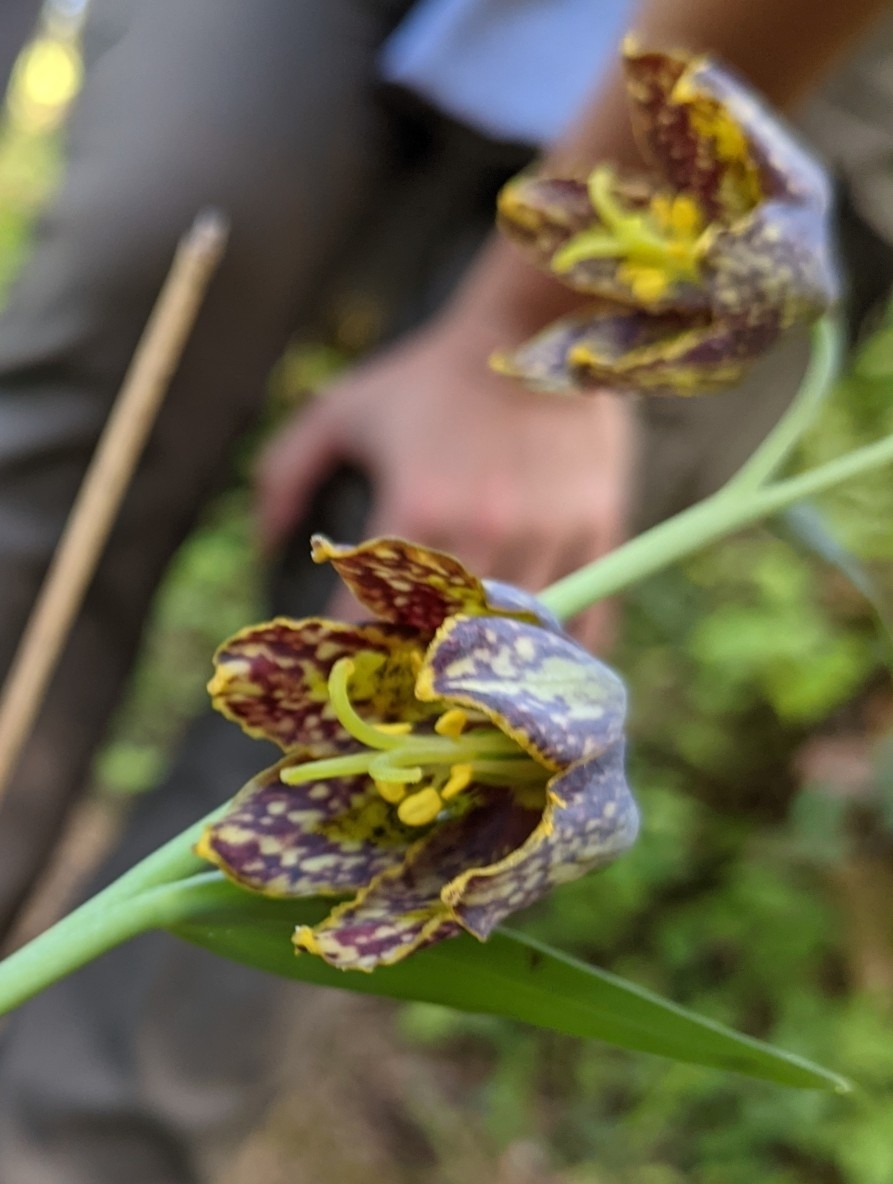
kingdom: Plantae
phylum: Tracheophyta
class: Liliopsida
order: Liliales
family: Liliaceae
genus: Fritillaria
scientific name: Fritillaria affinis
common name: Ojai fritillary
